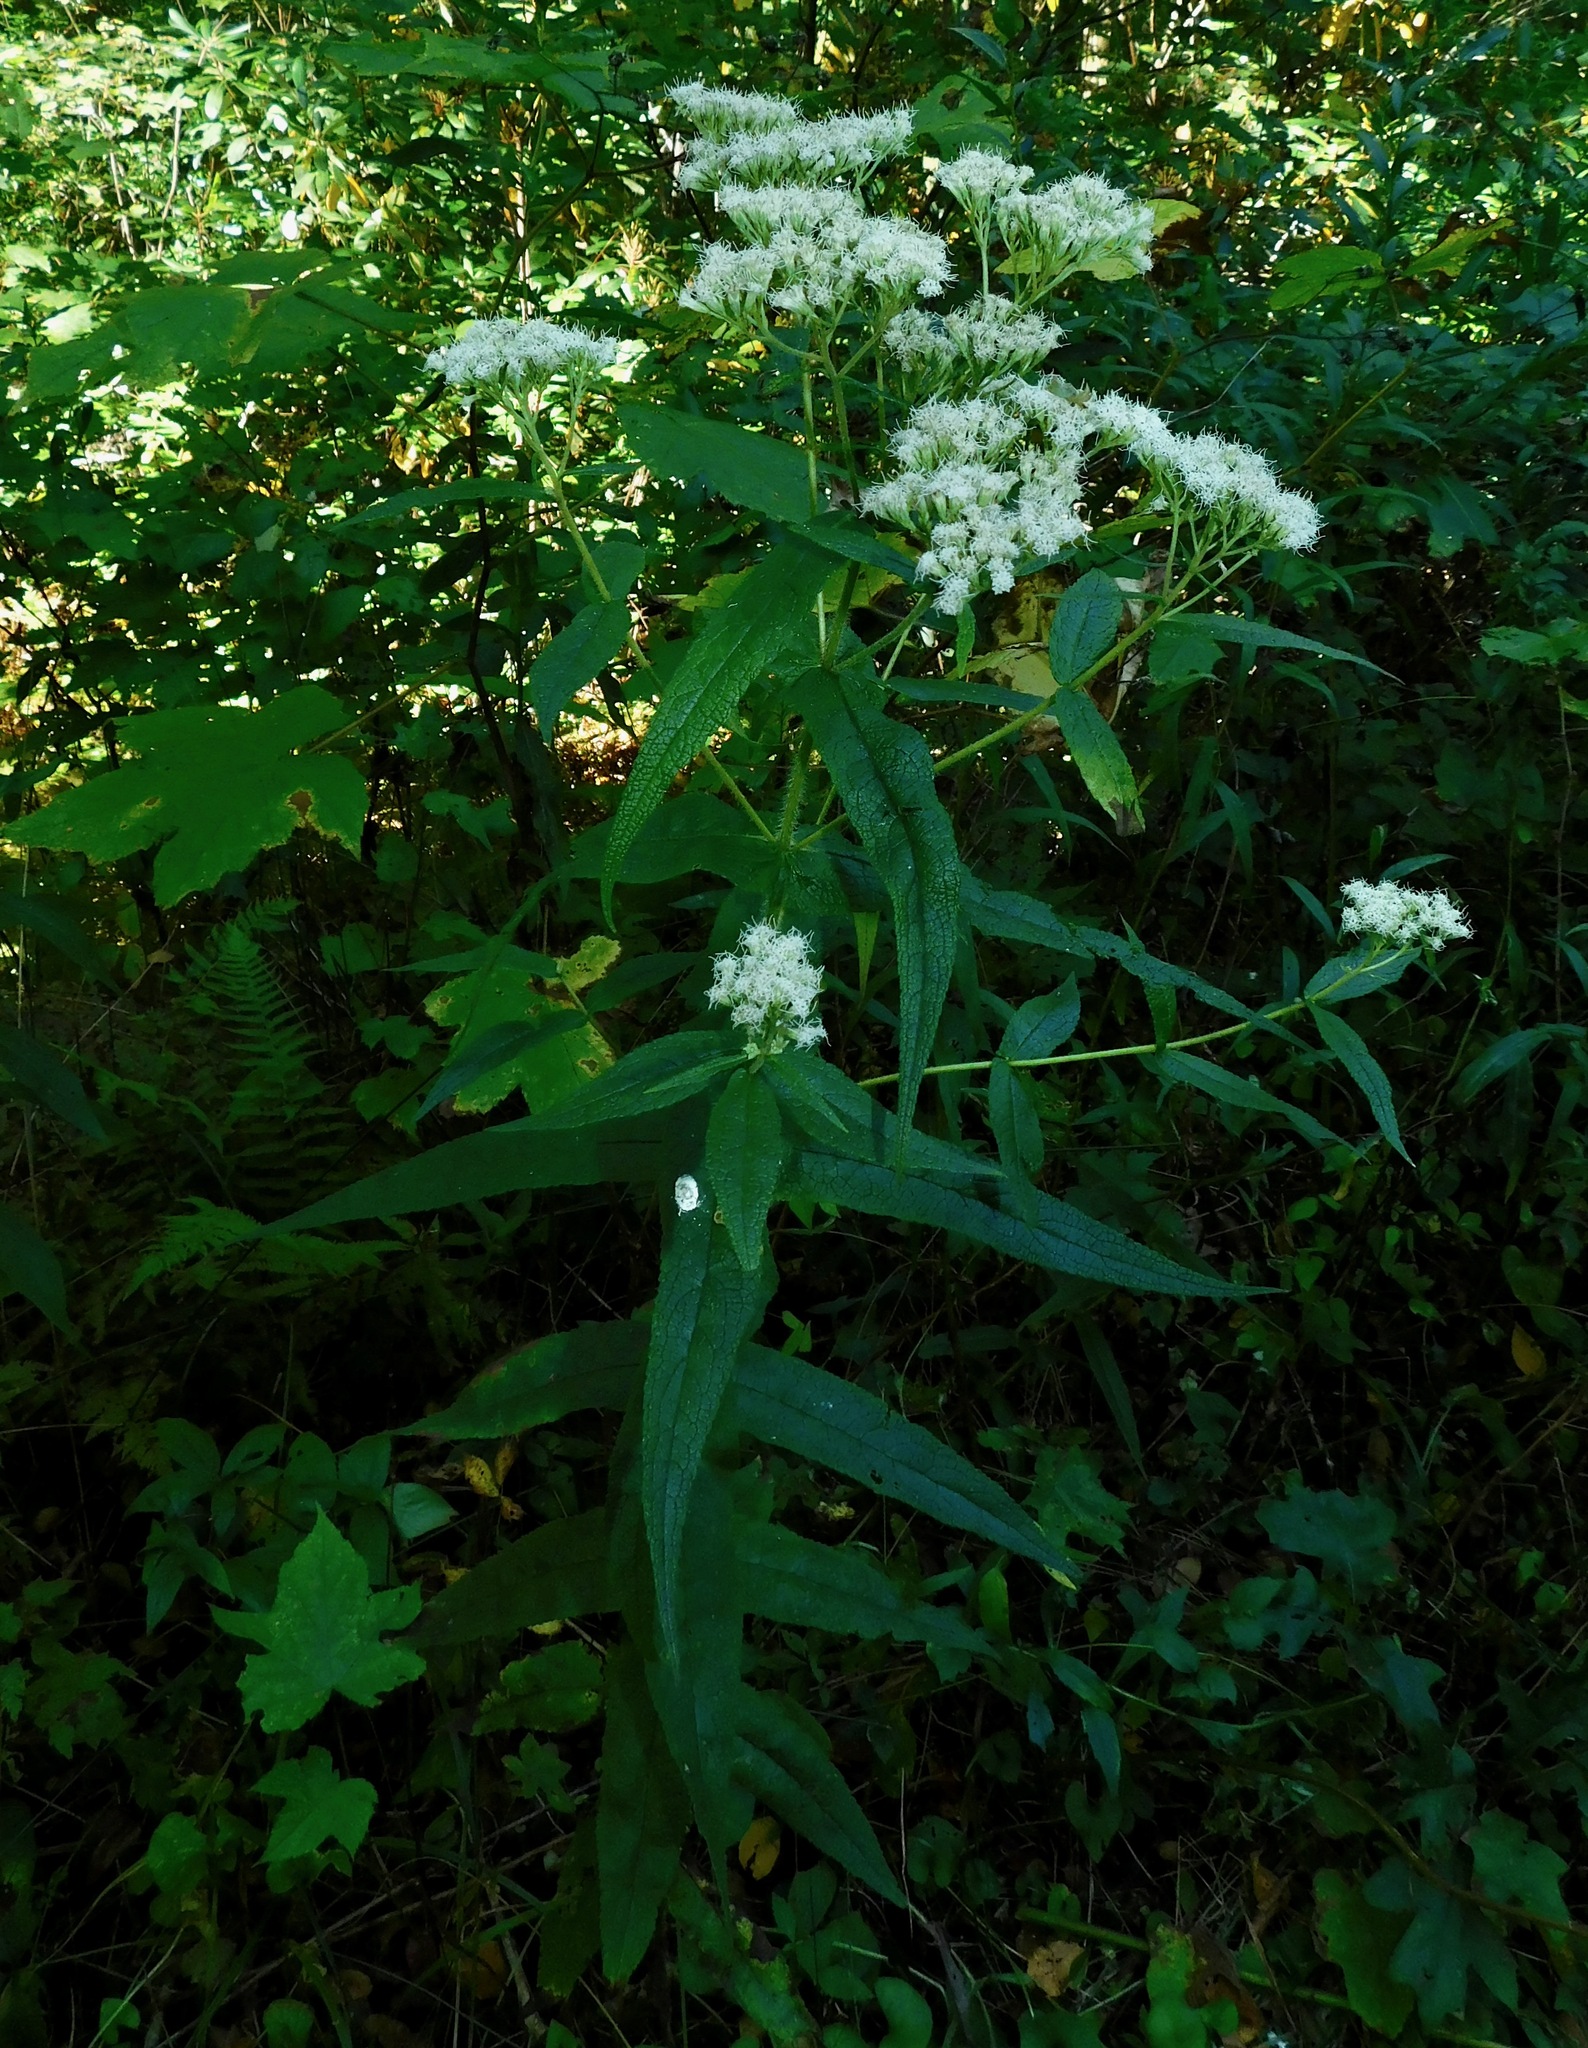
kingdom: Plantae
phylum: Tracheophyta
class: Magnoliopsida
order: Asterales
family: Asteraceae
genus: Eupatorium
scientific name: Eupatorium perfoliatum
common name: Boneset
